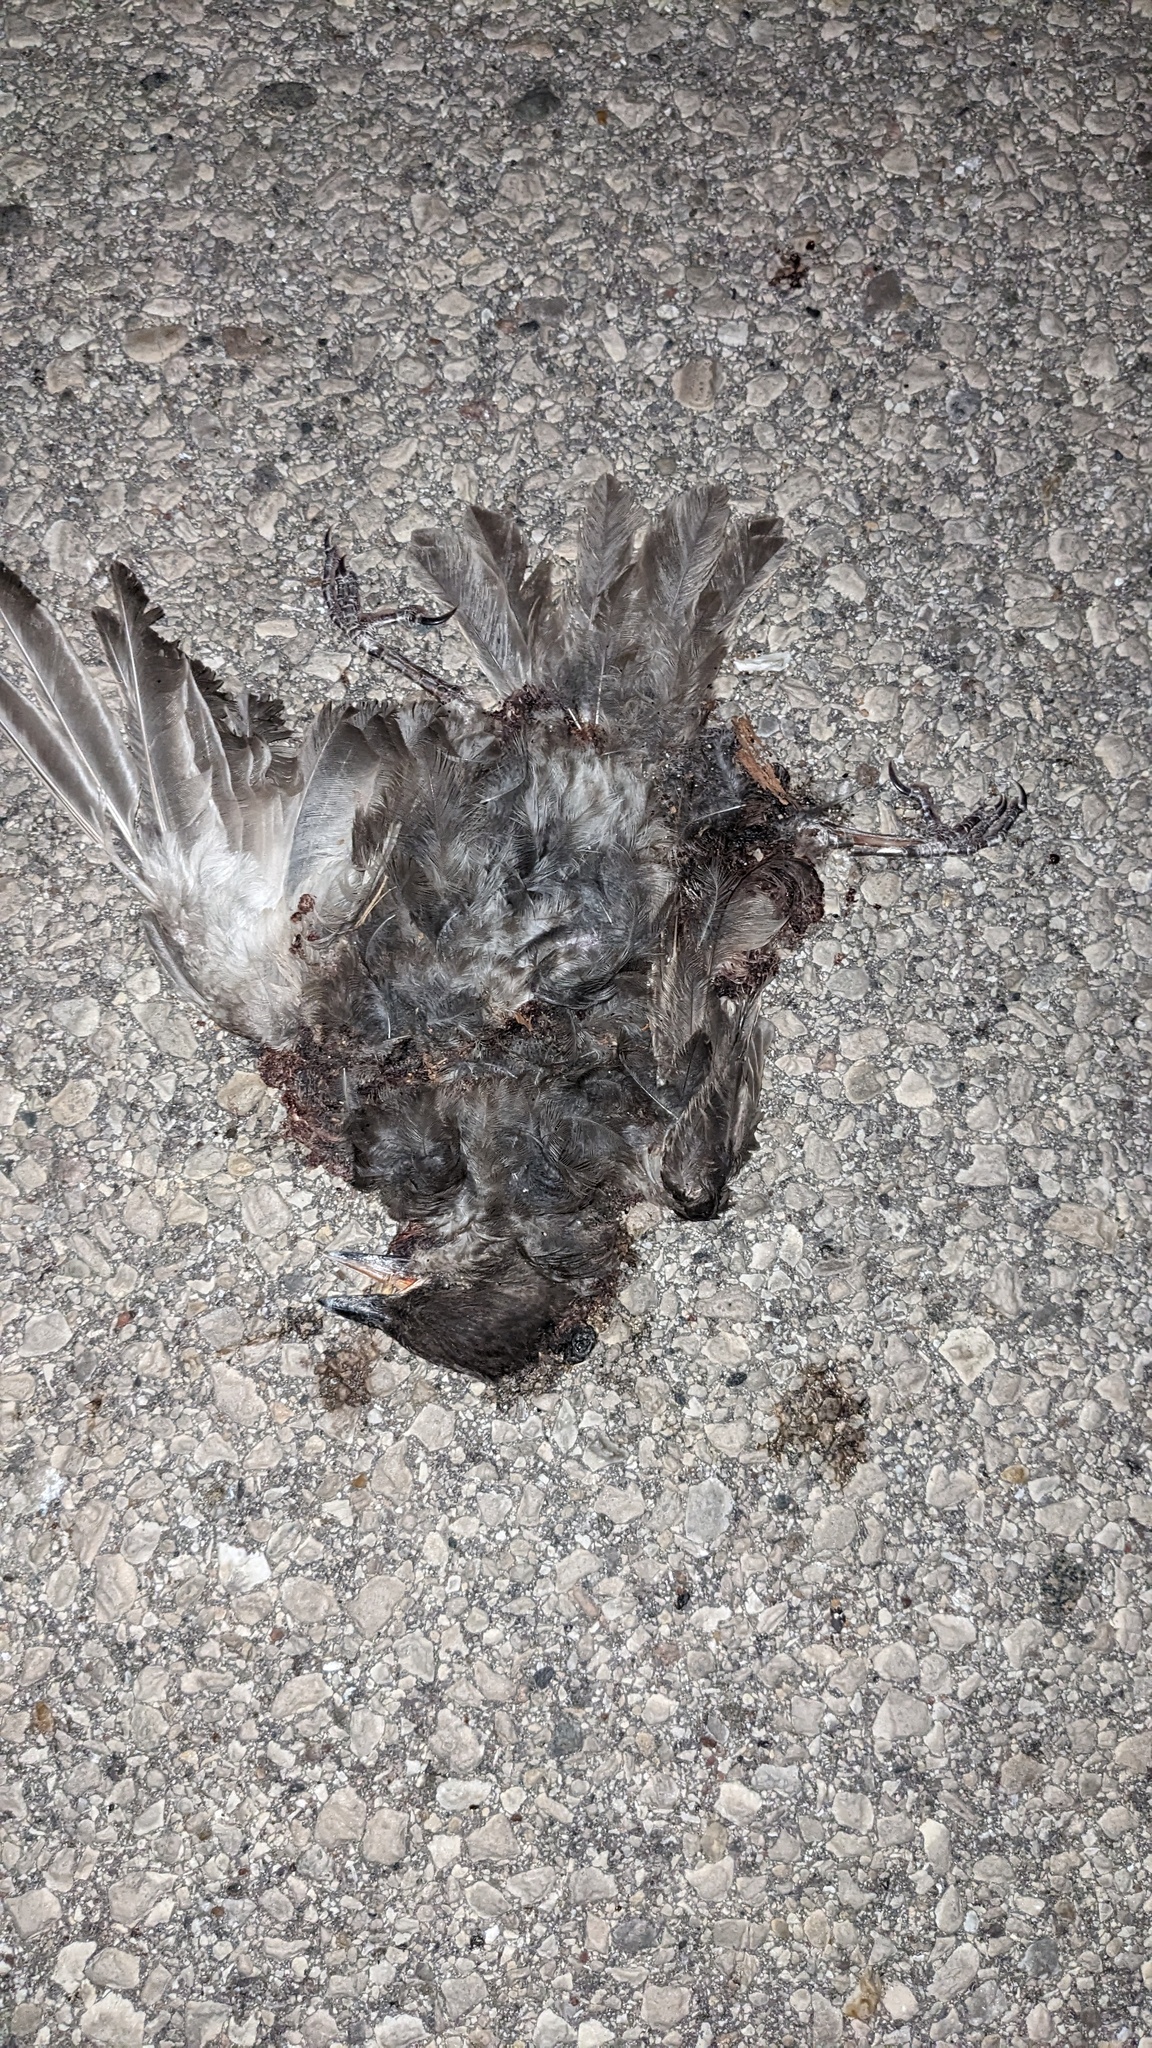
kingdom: Animalia
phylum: Chordata
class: Aves
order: Passeriformes
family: Turdidae
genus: Turdus
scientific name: Turdus migratorius
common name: American robin
